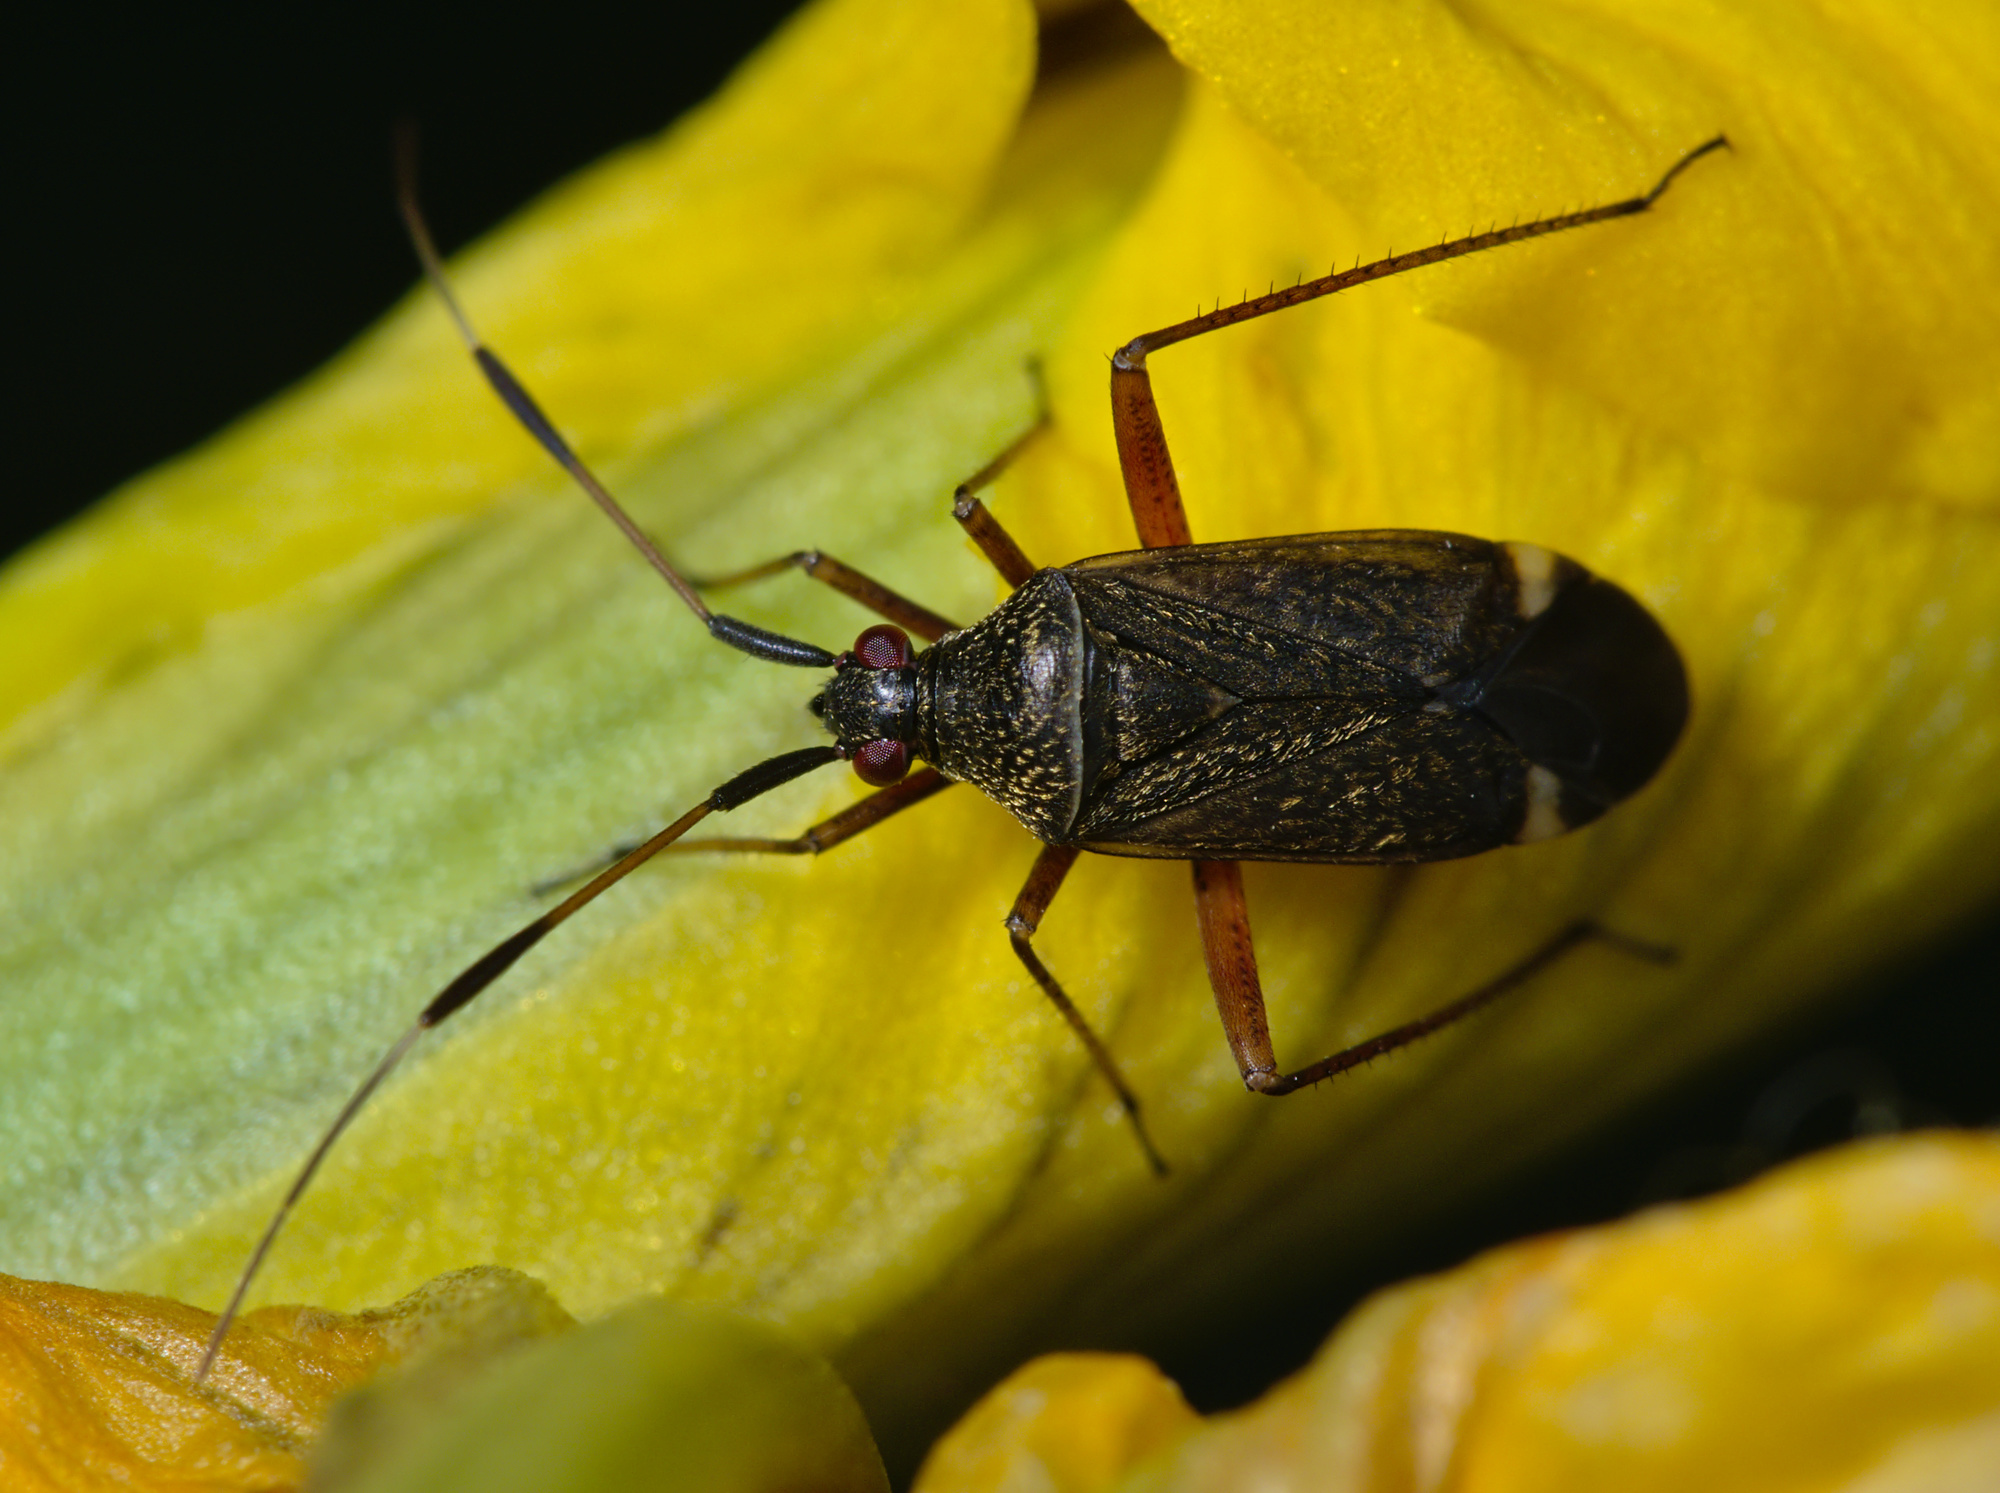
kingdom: Animalia
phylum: Arthropoda
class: Insecta
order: Hemiptera
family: Miridae
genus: Closterotomus
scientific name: Closterotomus biclavatus
